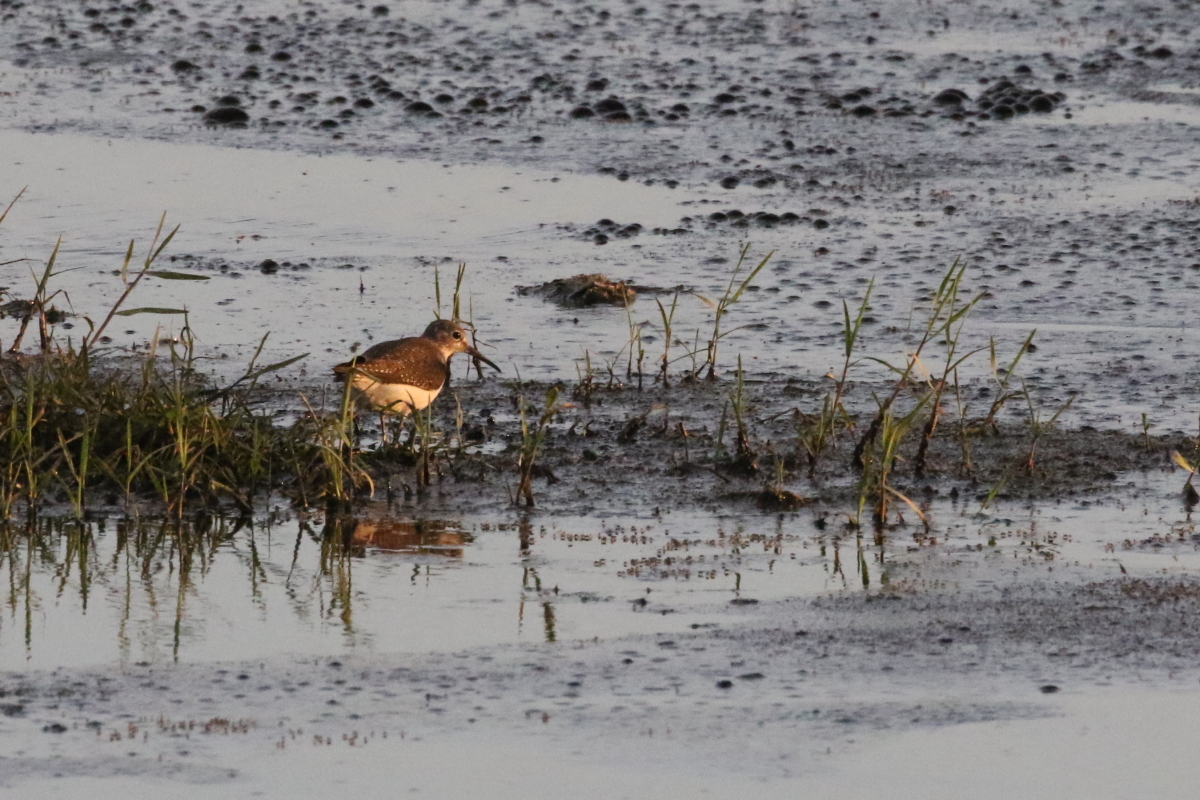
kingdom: Animalia
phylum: Chordata
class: Aves
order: Charadriiformes
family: Scolopacidae
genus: Tringa
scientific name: Tringa solitaria
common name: Solitary sandpiper
